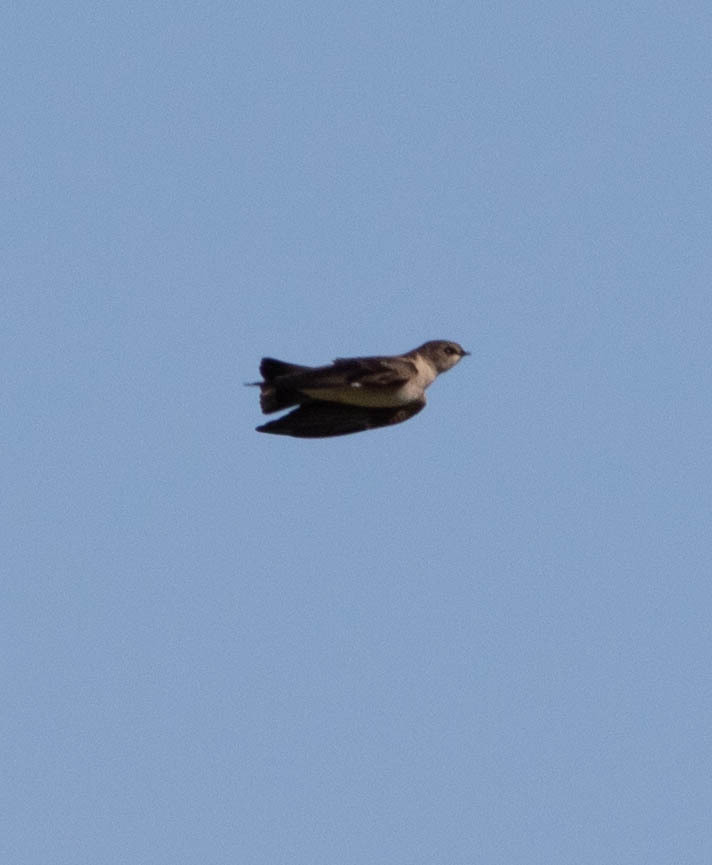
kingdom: Animalia
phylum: Chordata
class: Aves
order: Passeriformes
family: Hirundinidae
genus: Stelgidopteryx
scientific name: Stelgidopteryx serripennis
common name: Northern rough-winged swallow
